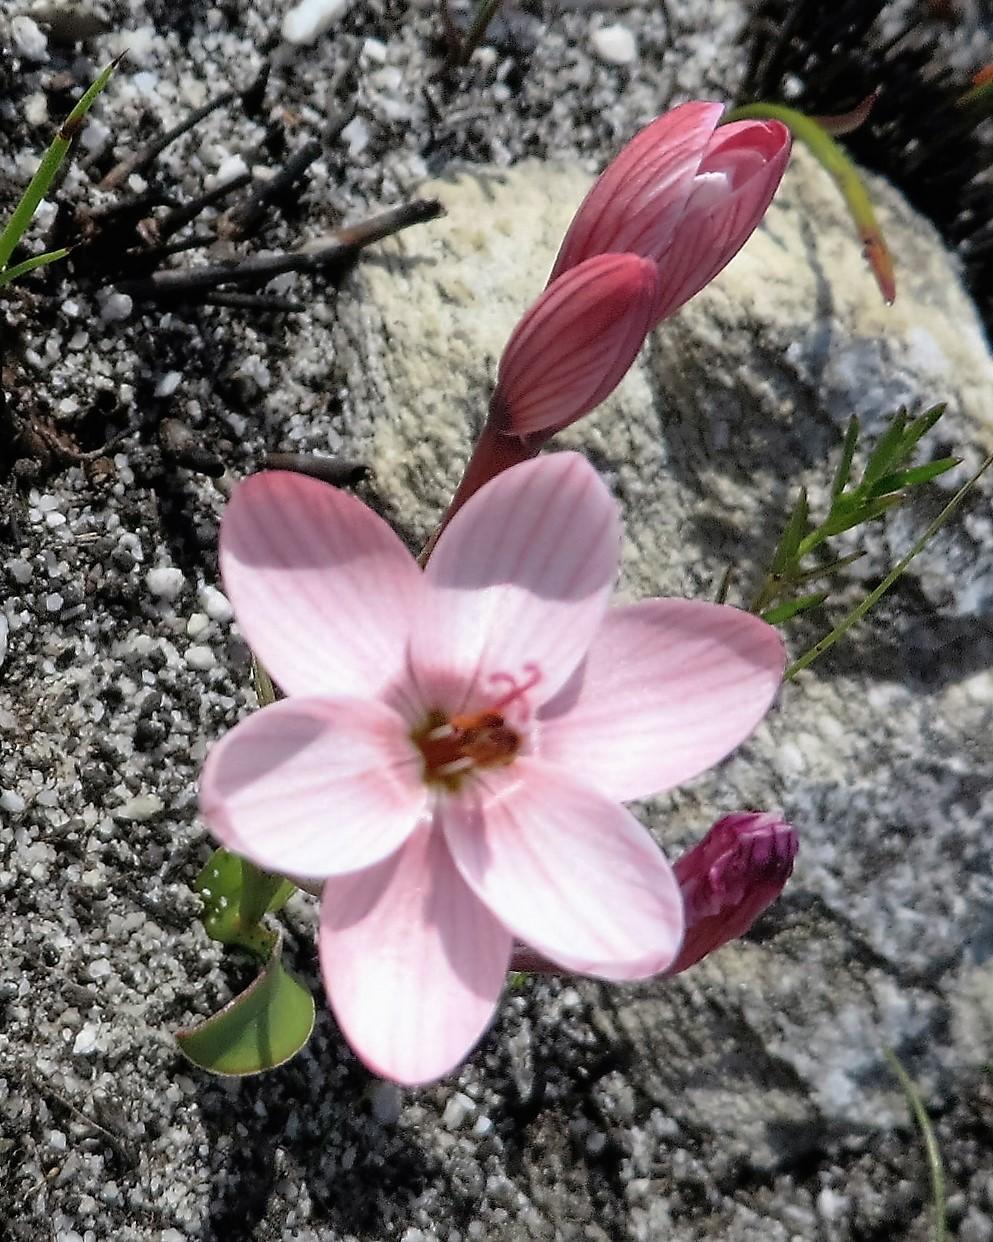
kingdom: Plantae
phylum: Tracheophyta
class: Liliopsida
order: Asparagales
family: Iridaceae
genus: Geissorhiza
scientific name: Geissorhiza ovata
